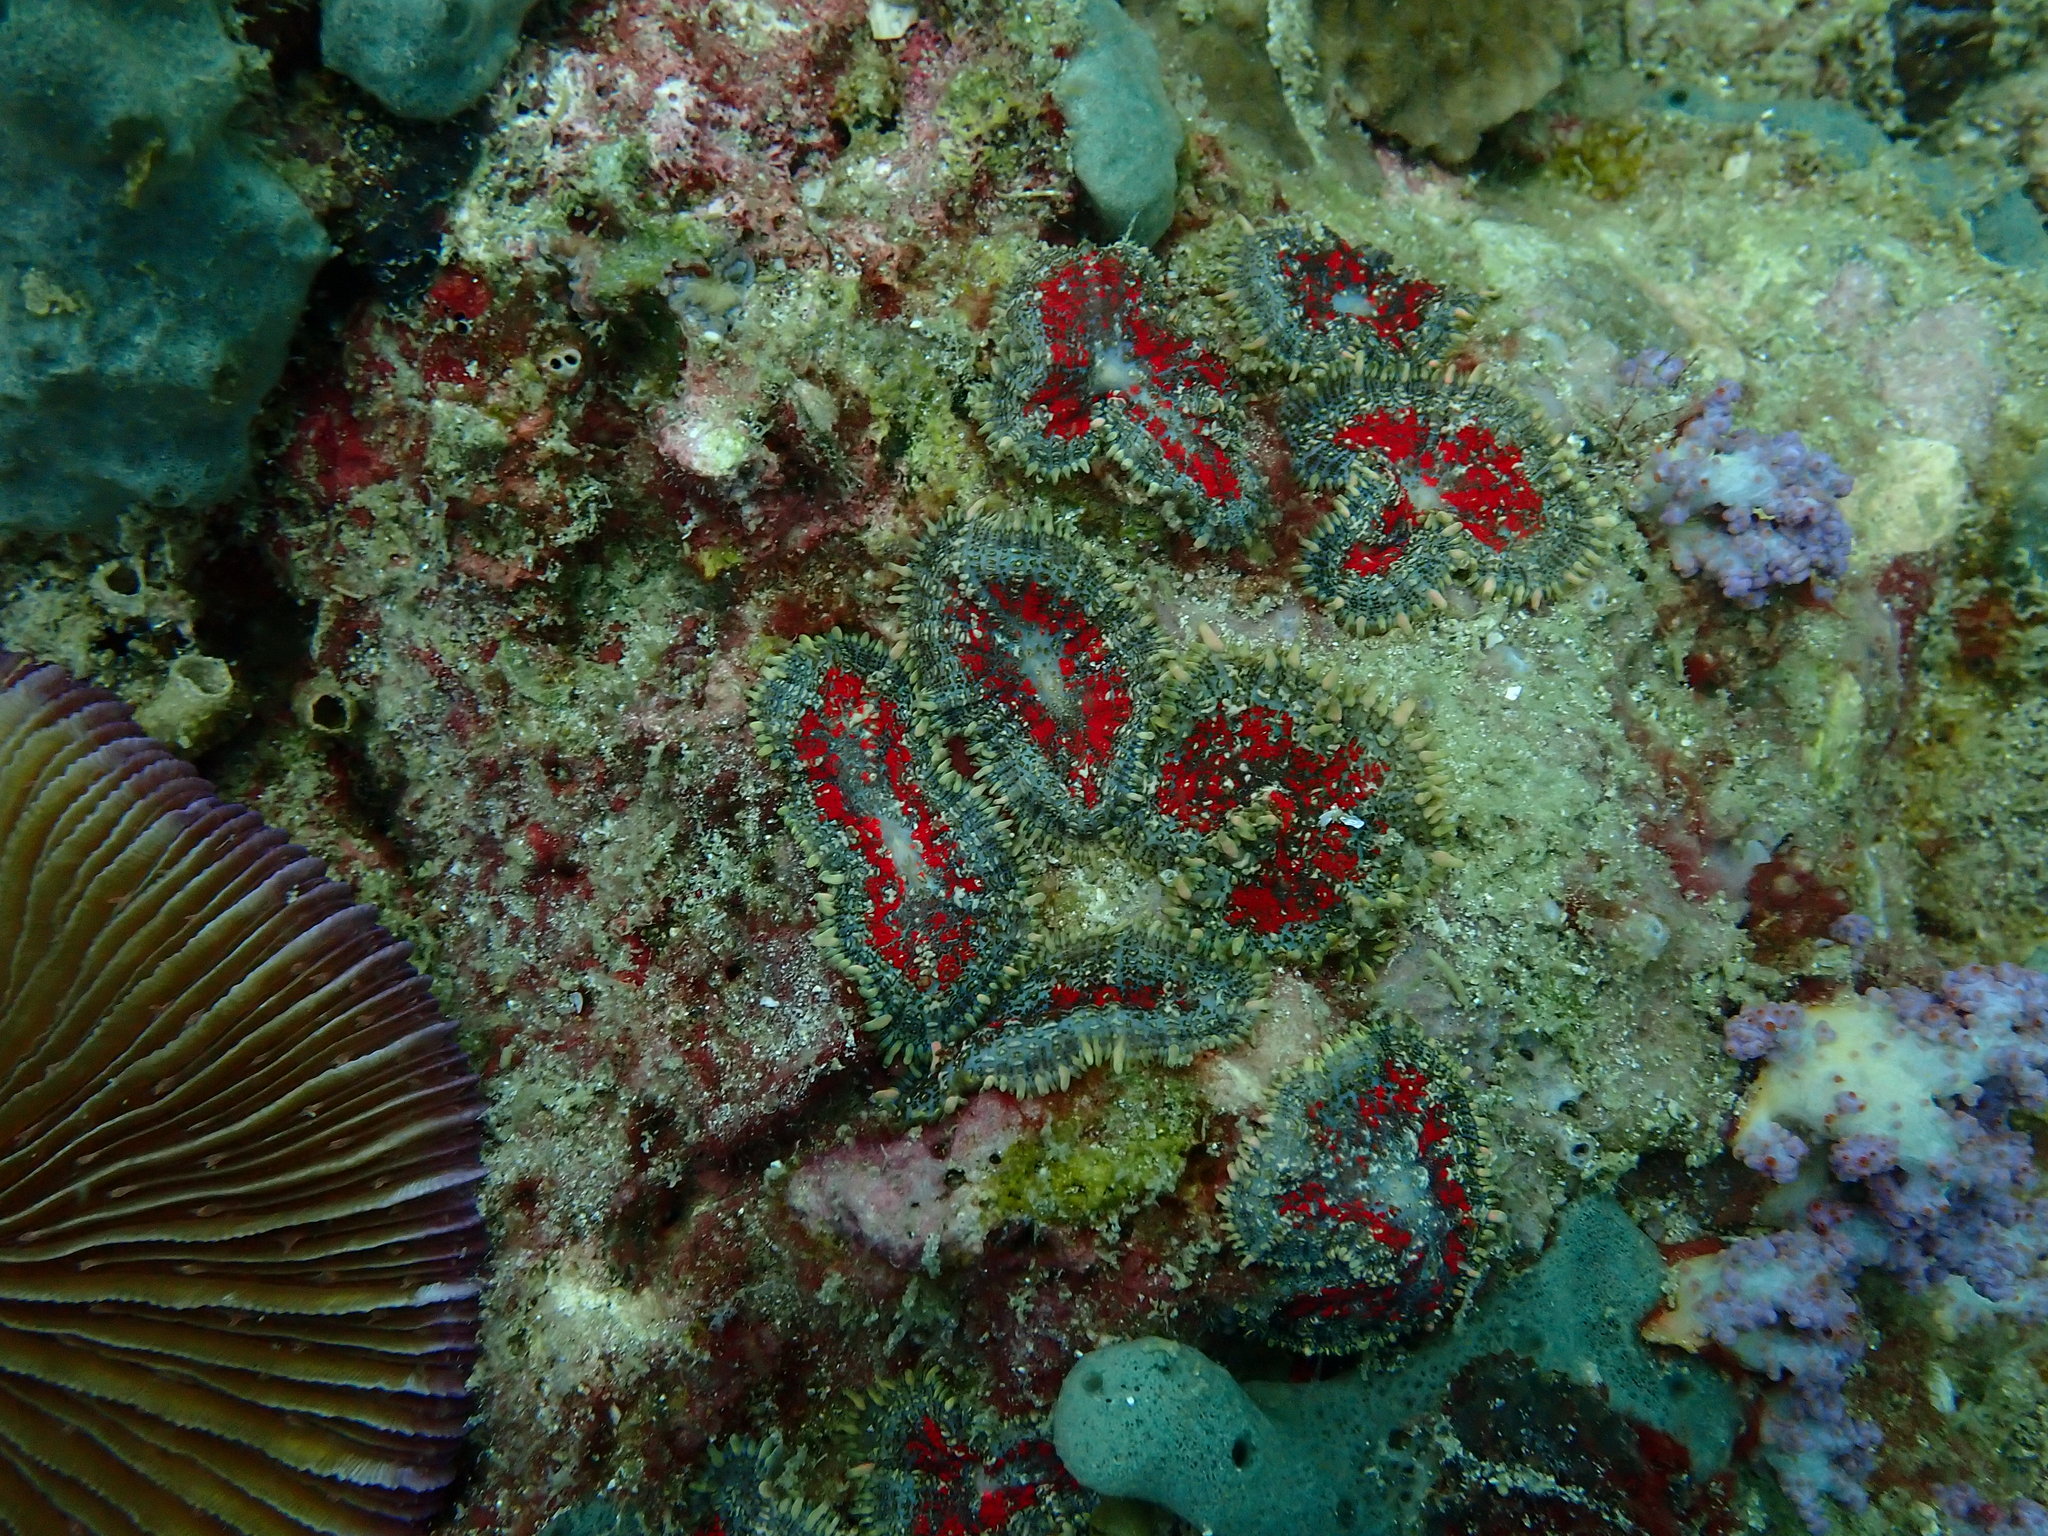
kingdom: Animalia
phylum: Cnidaria
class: Anthozoa
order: Corallimorpharia
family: Discosomidae
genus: Rhodactis
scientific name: Rhodactis inchoata
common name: Tonga blue mushroom anemone
